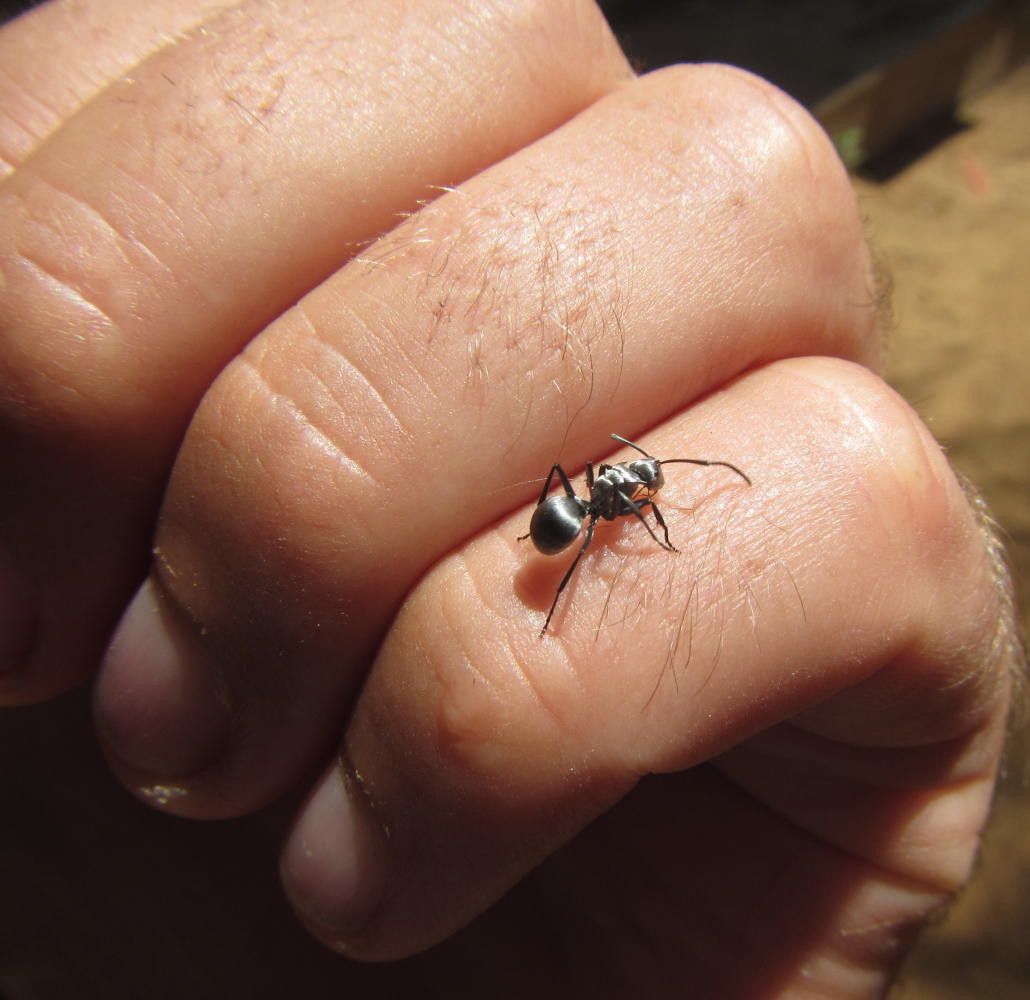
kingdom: Animalia
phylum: Arthropoda
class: Insecta
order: Hymenoptera
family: Formicidae
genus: Polyrhachis
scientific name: Polyrhachis schlueteri
